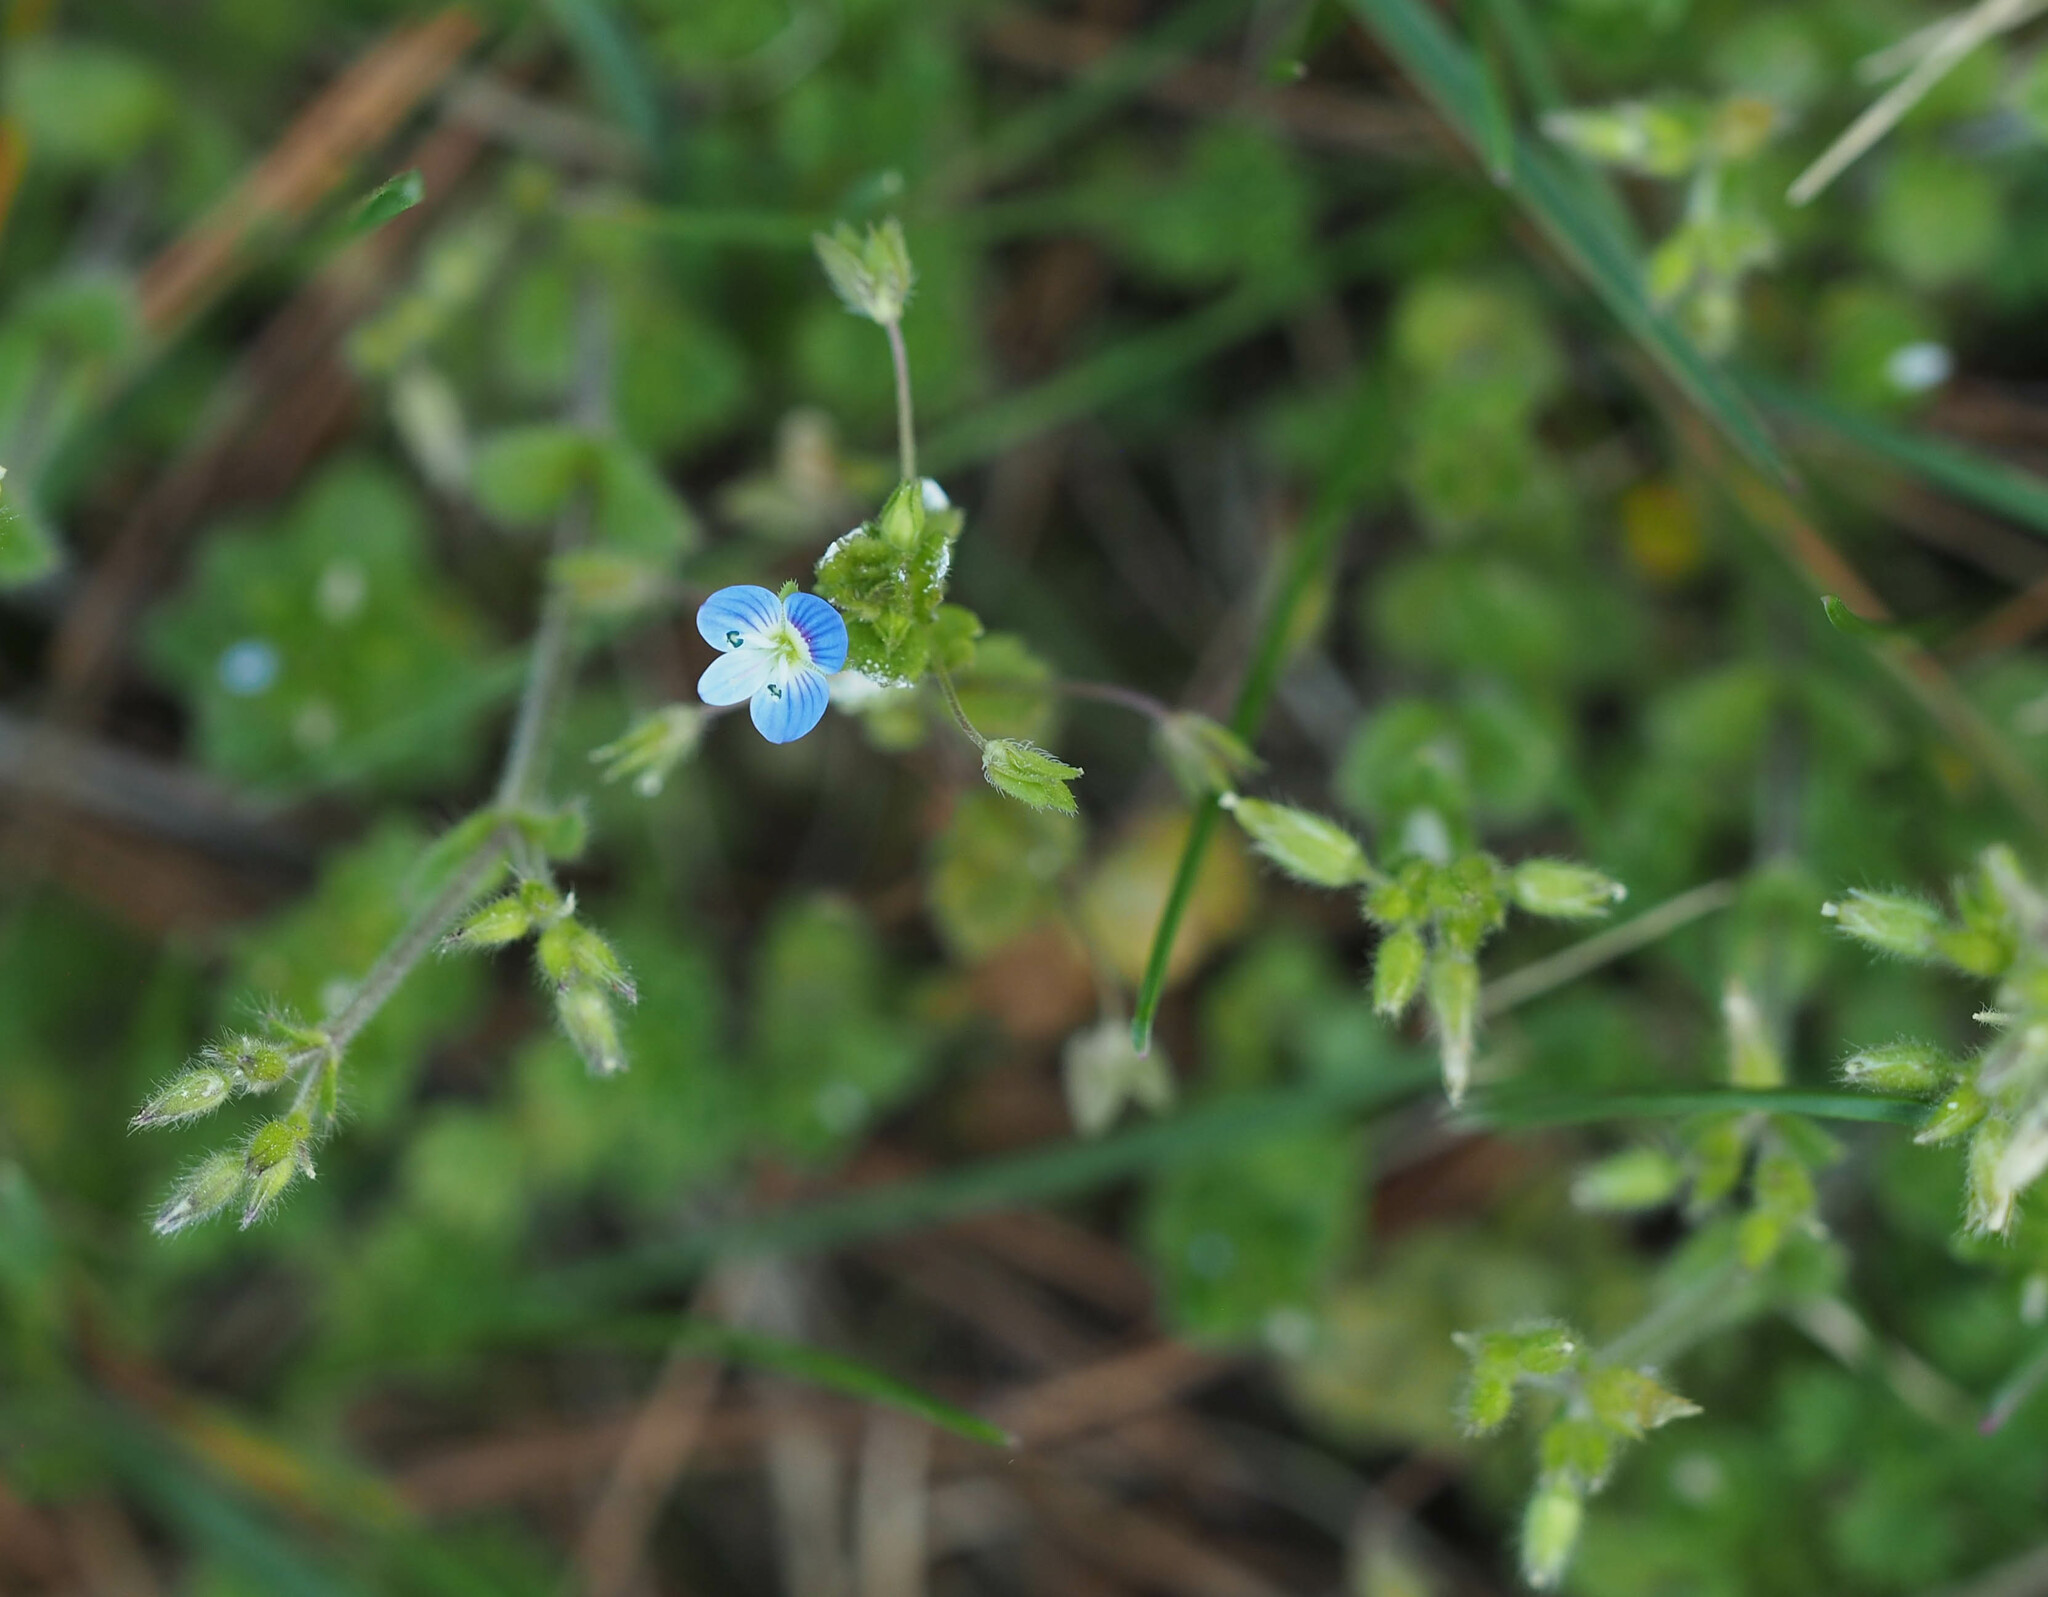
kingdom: Plantae
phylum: Tracheophyta
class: Magnoliopsida
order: Lamiales
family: Plantaginaceae
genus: Veronica
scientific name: Veronica persica
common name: Common field-speedwell
